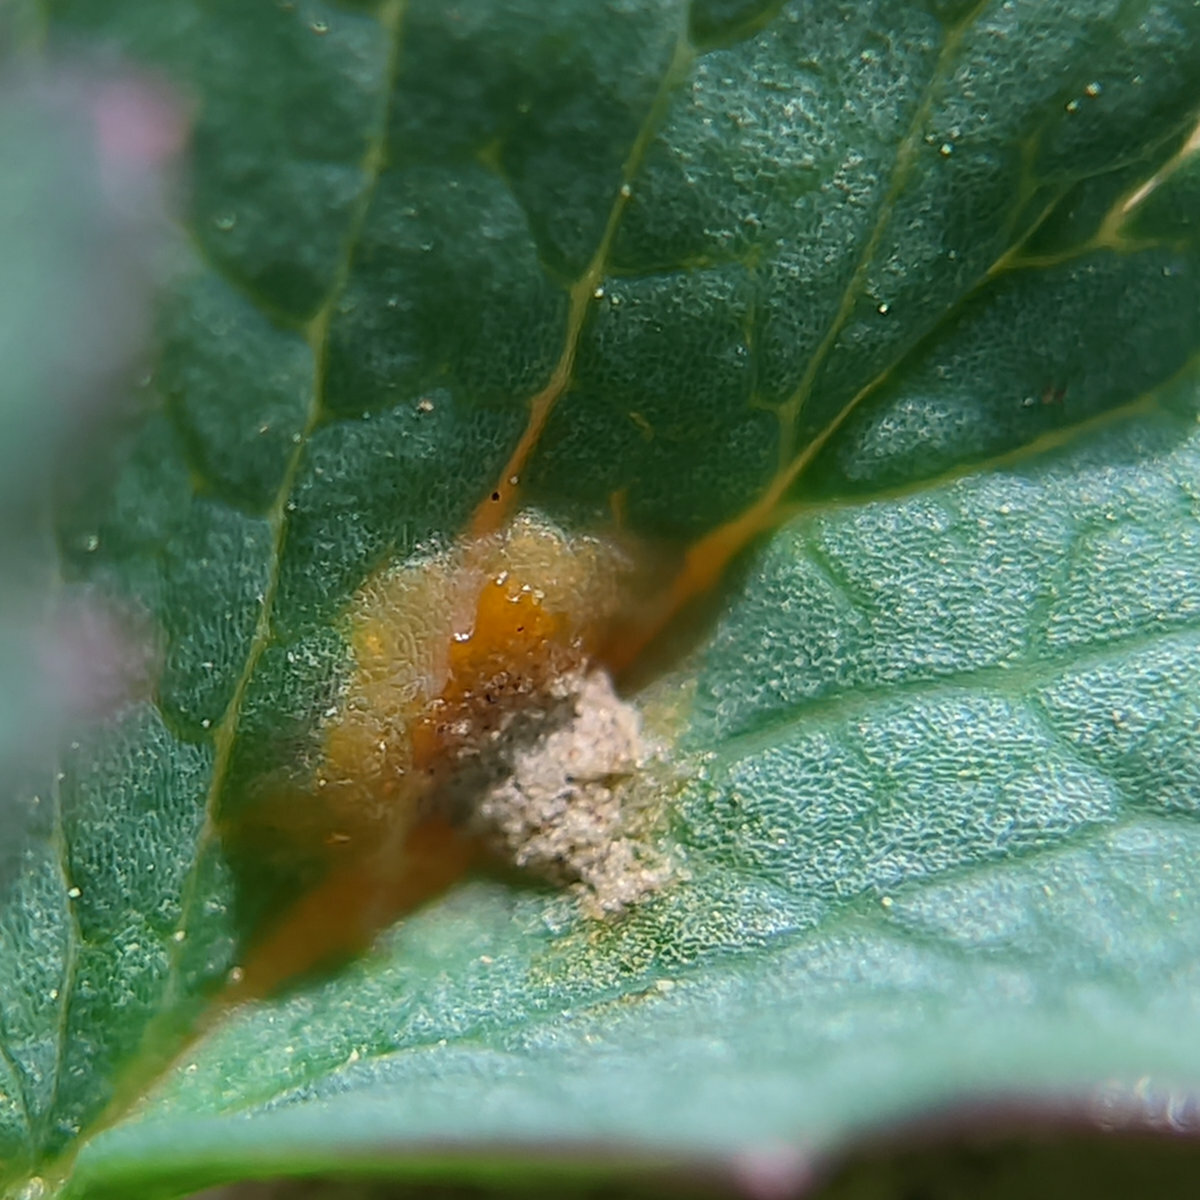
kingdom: Fungi
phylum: Basidiomycota
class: Pucciniomycetes
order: Pucciniales
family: Phragmidiaceae
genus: Phragmidium
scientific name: Phragmidium sanguisorbae
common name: Salad burnet rust
